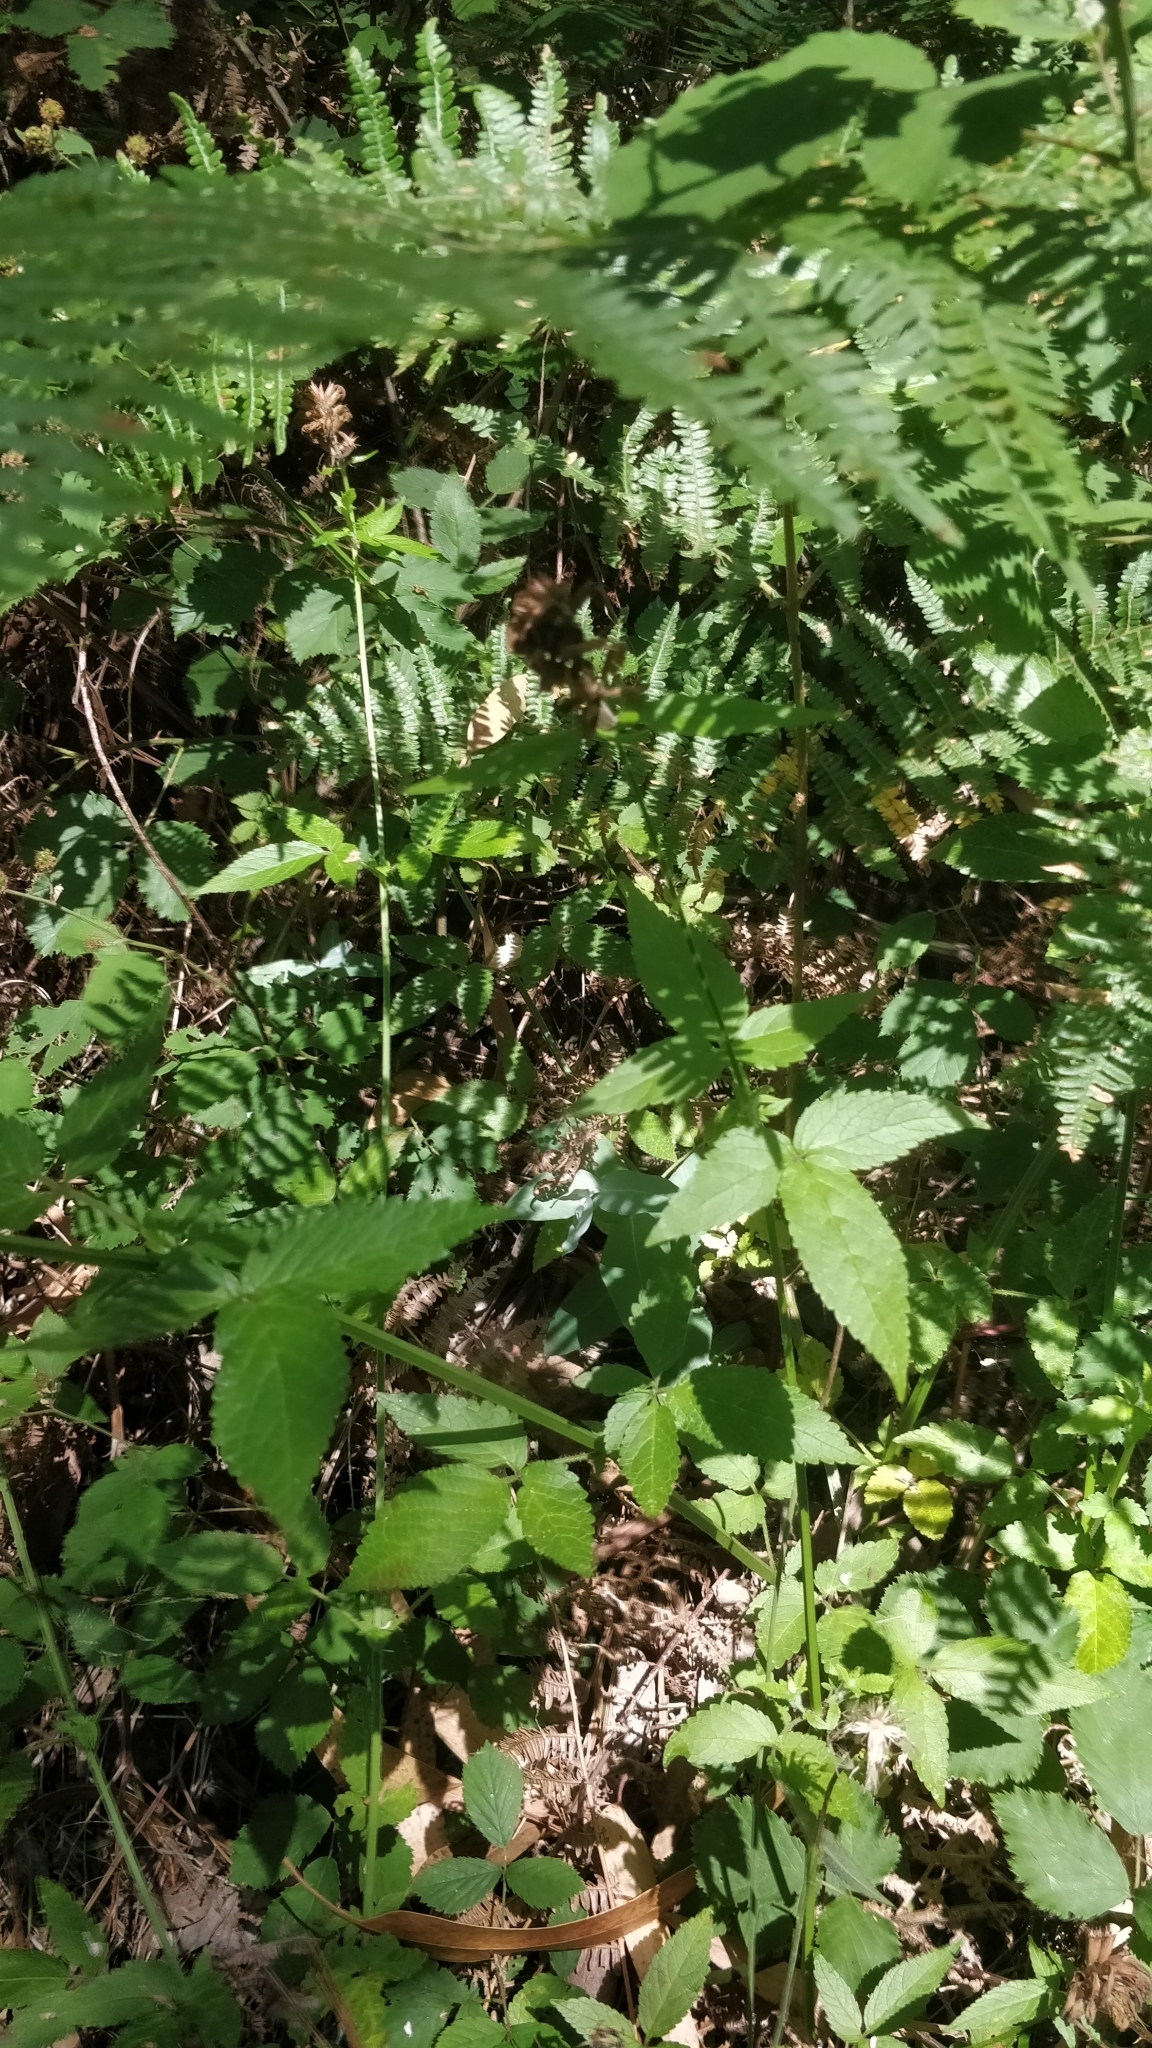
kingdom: Plantae
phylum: Tracheophyta
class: Magnoliopsida
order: Lamiales
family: Lamiaceae
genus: Cedronella
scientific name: Cedronella canariensis
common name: Canary islands balm
